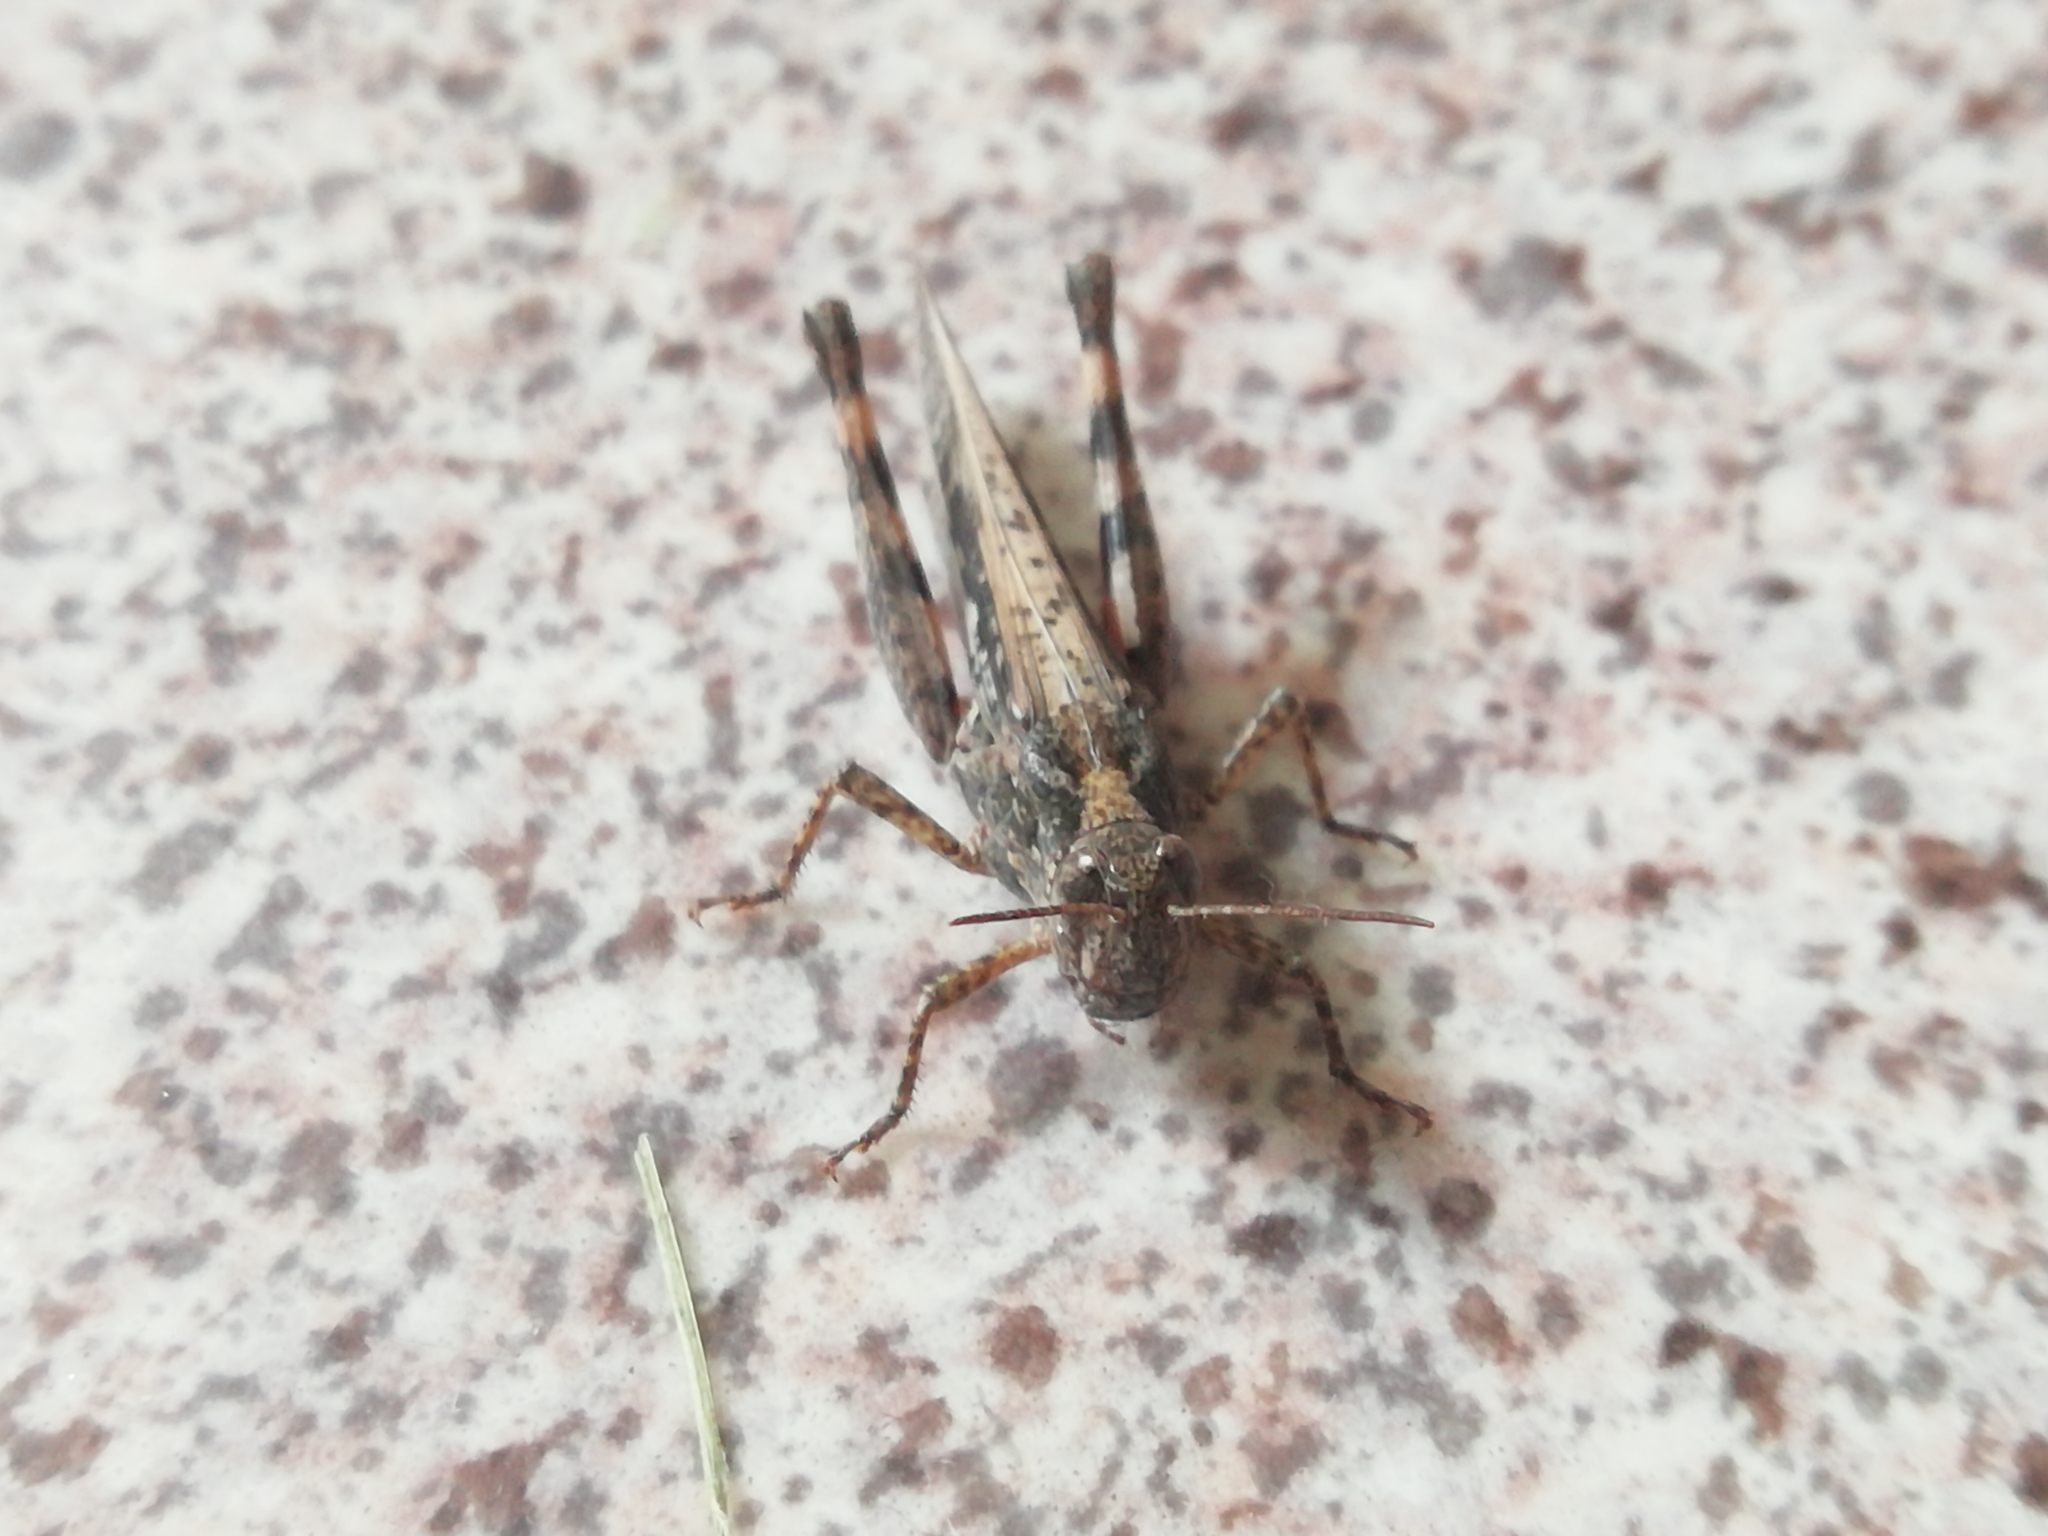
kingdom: Animalia
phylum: Arthropoda
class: Insecta
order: Orthoptera
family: Acrididae
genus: Epacromius
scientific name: Epacromius pulverulentus
